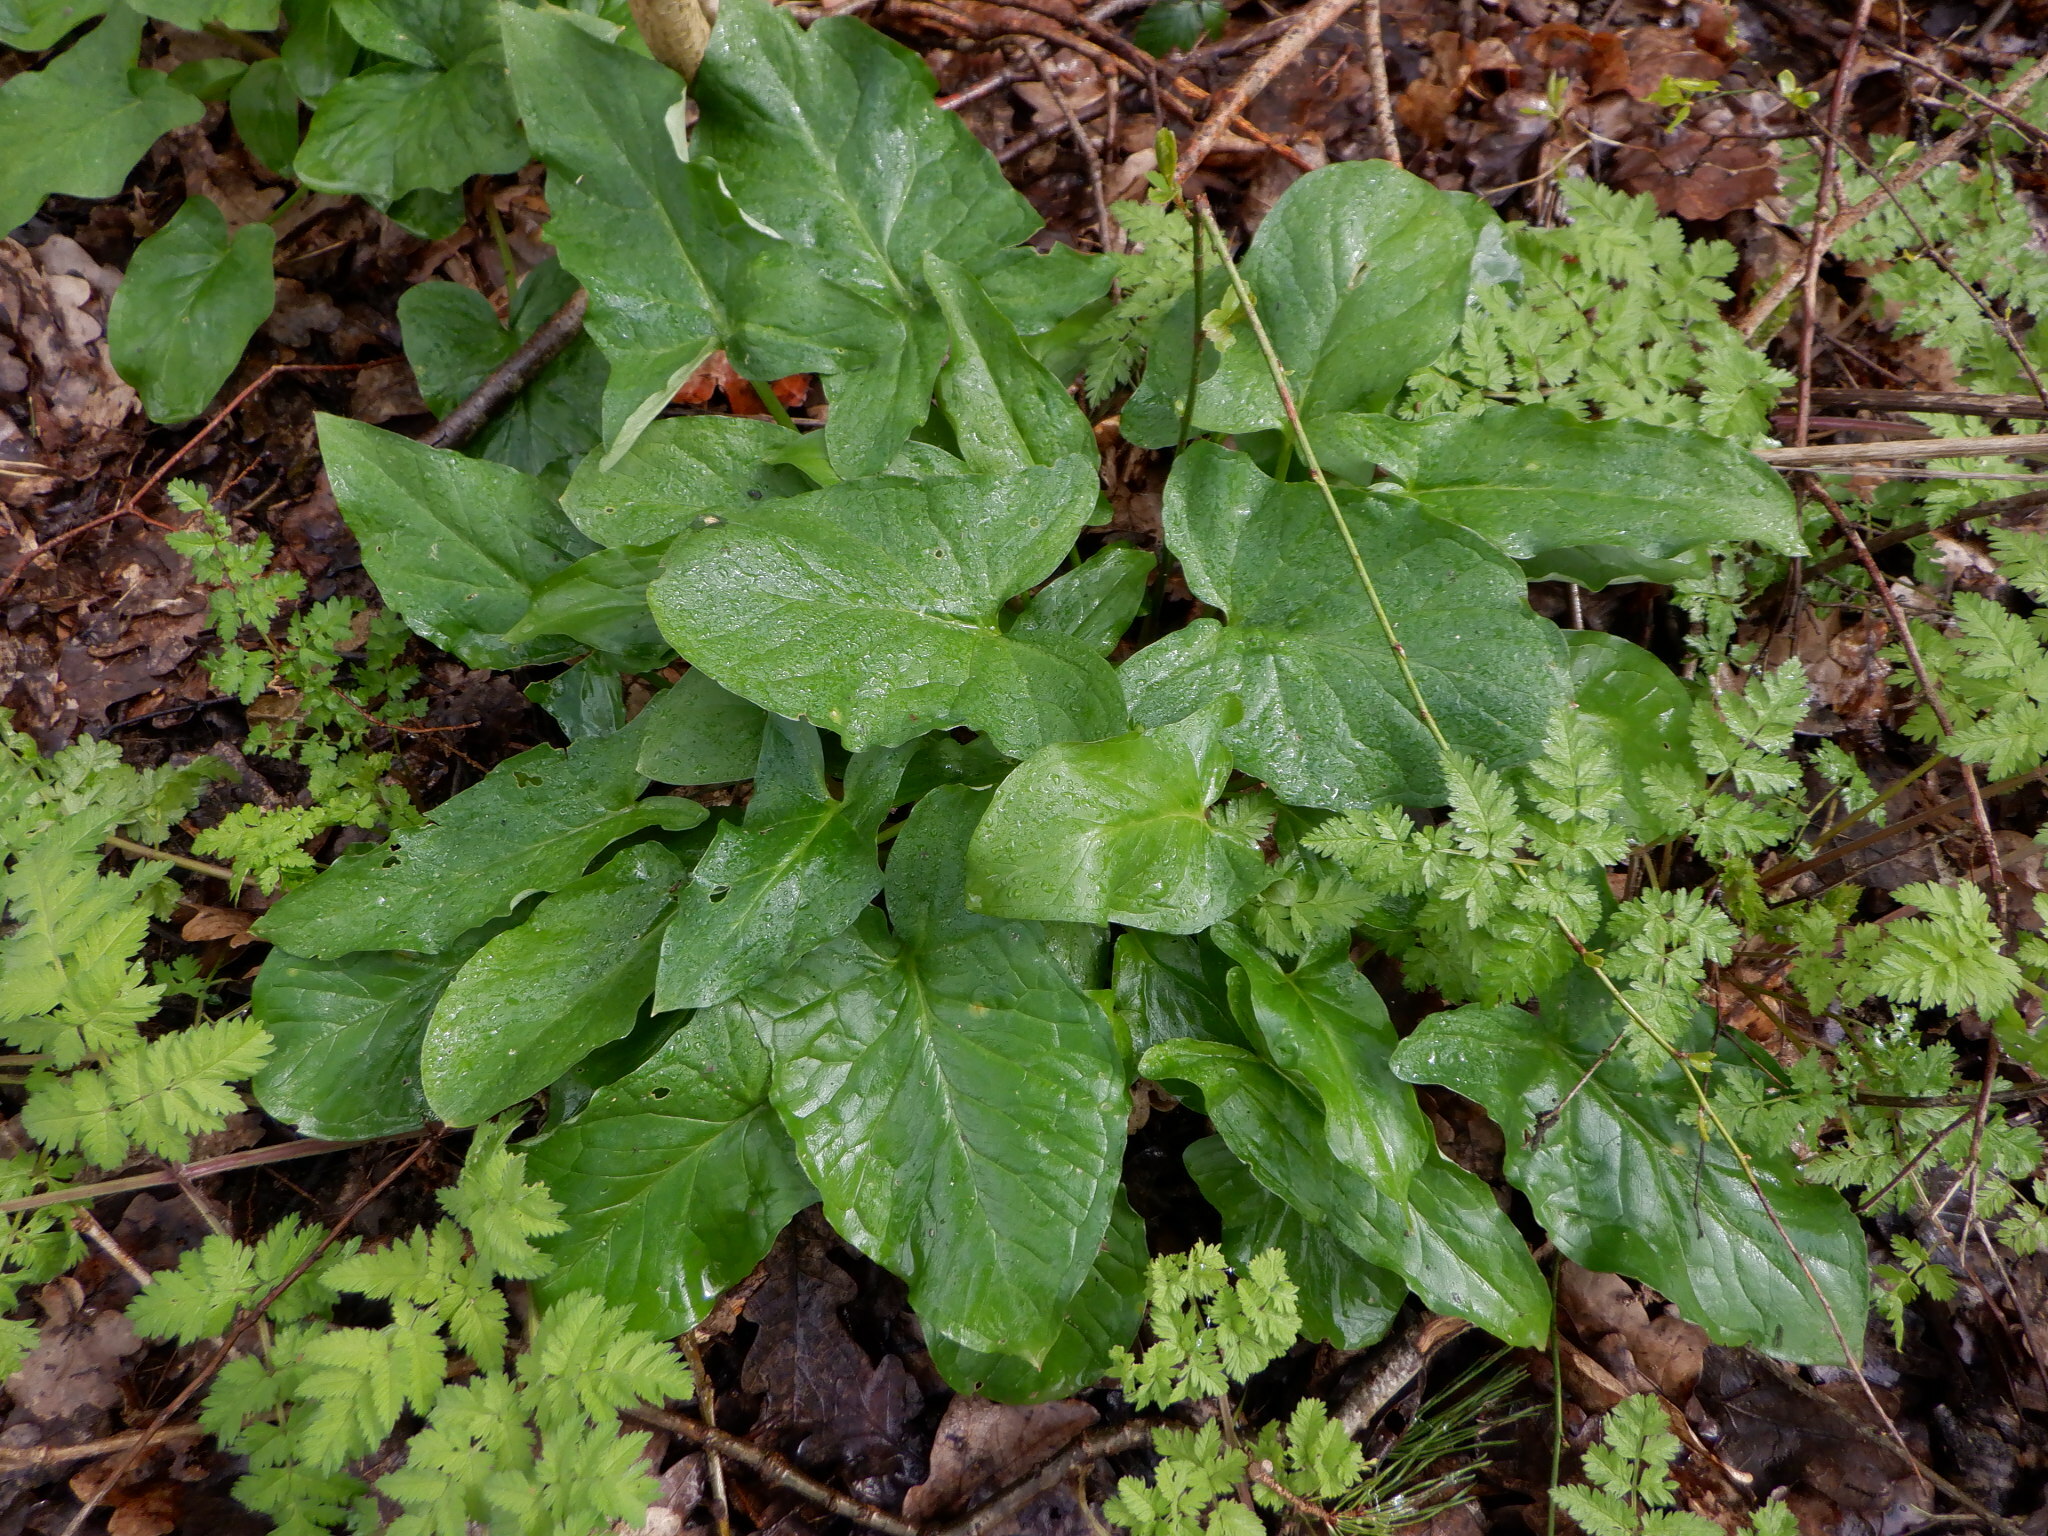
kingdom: Plantae
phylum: Tracheophyta
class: Liliopsida
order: Alismatales
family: Araceae
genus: Arum
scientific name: Arum maculatum
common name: Lords-and-ladies
